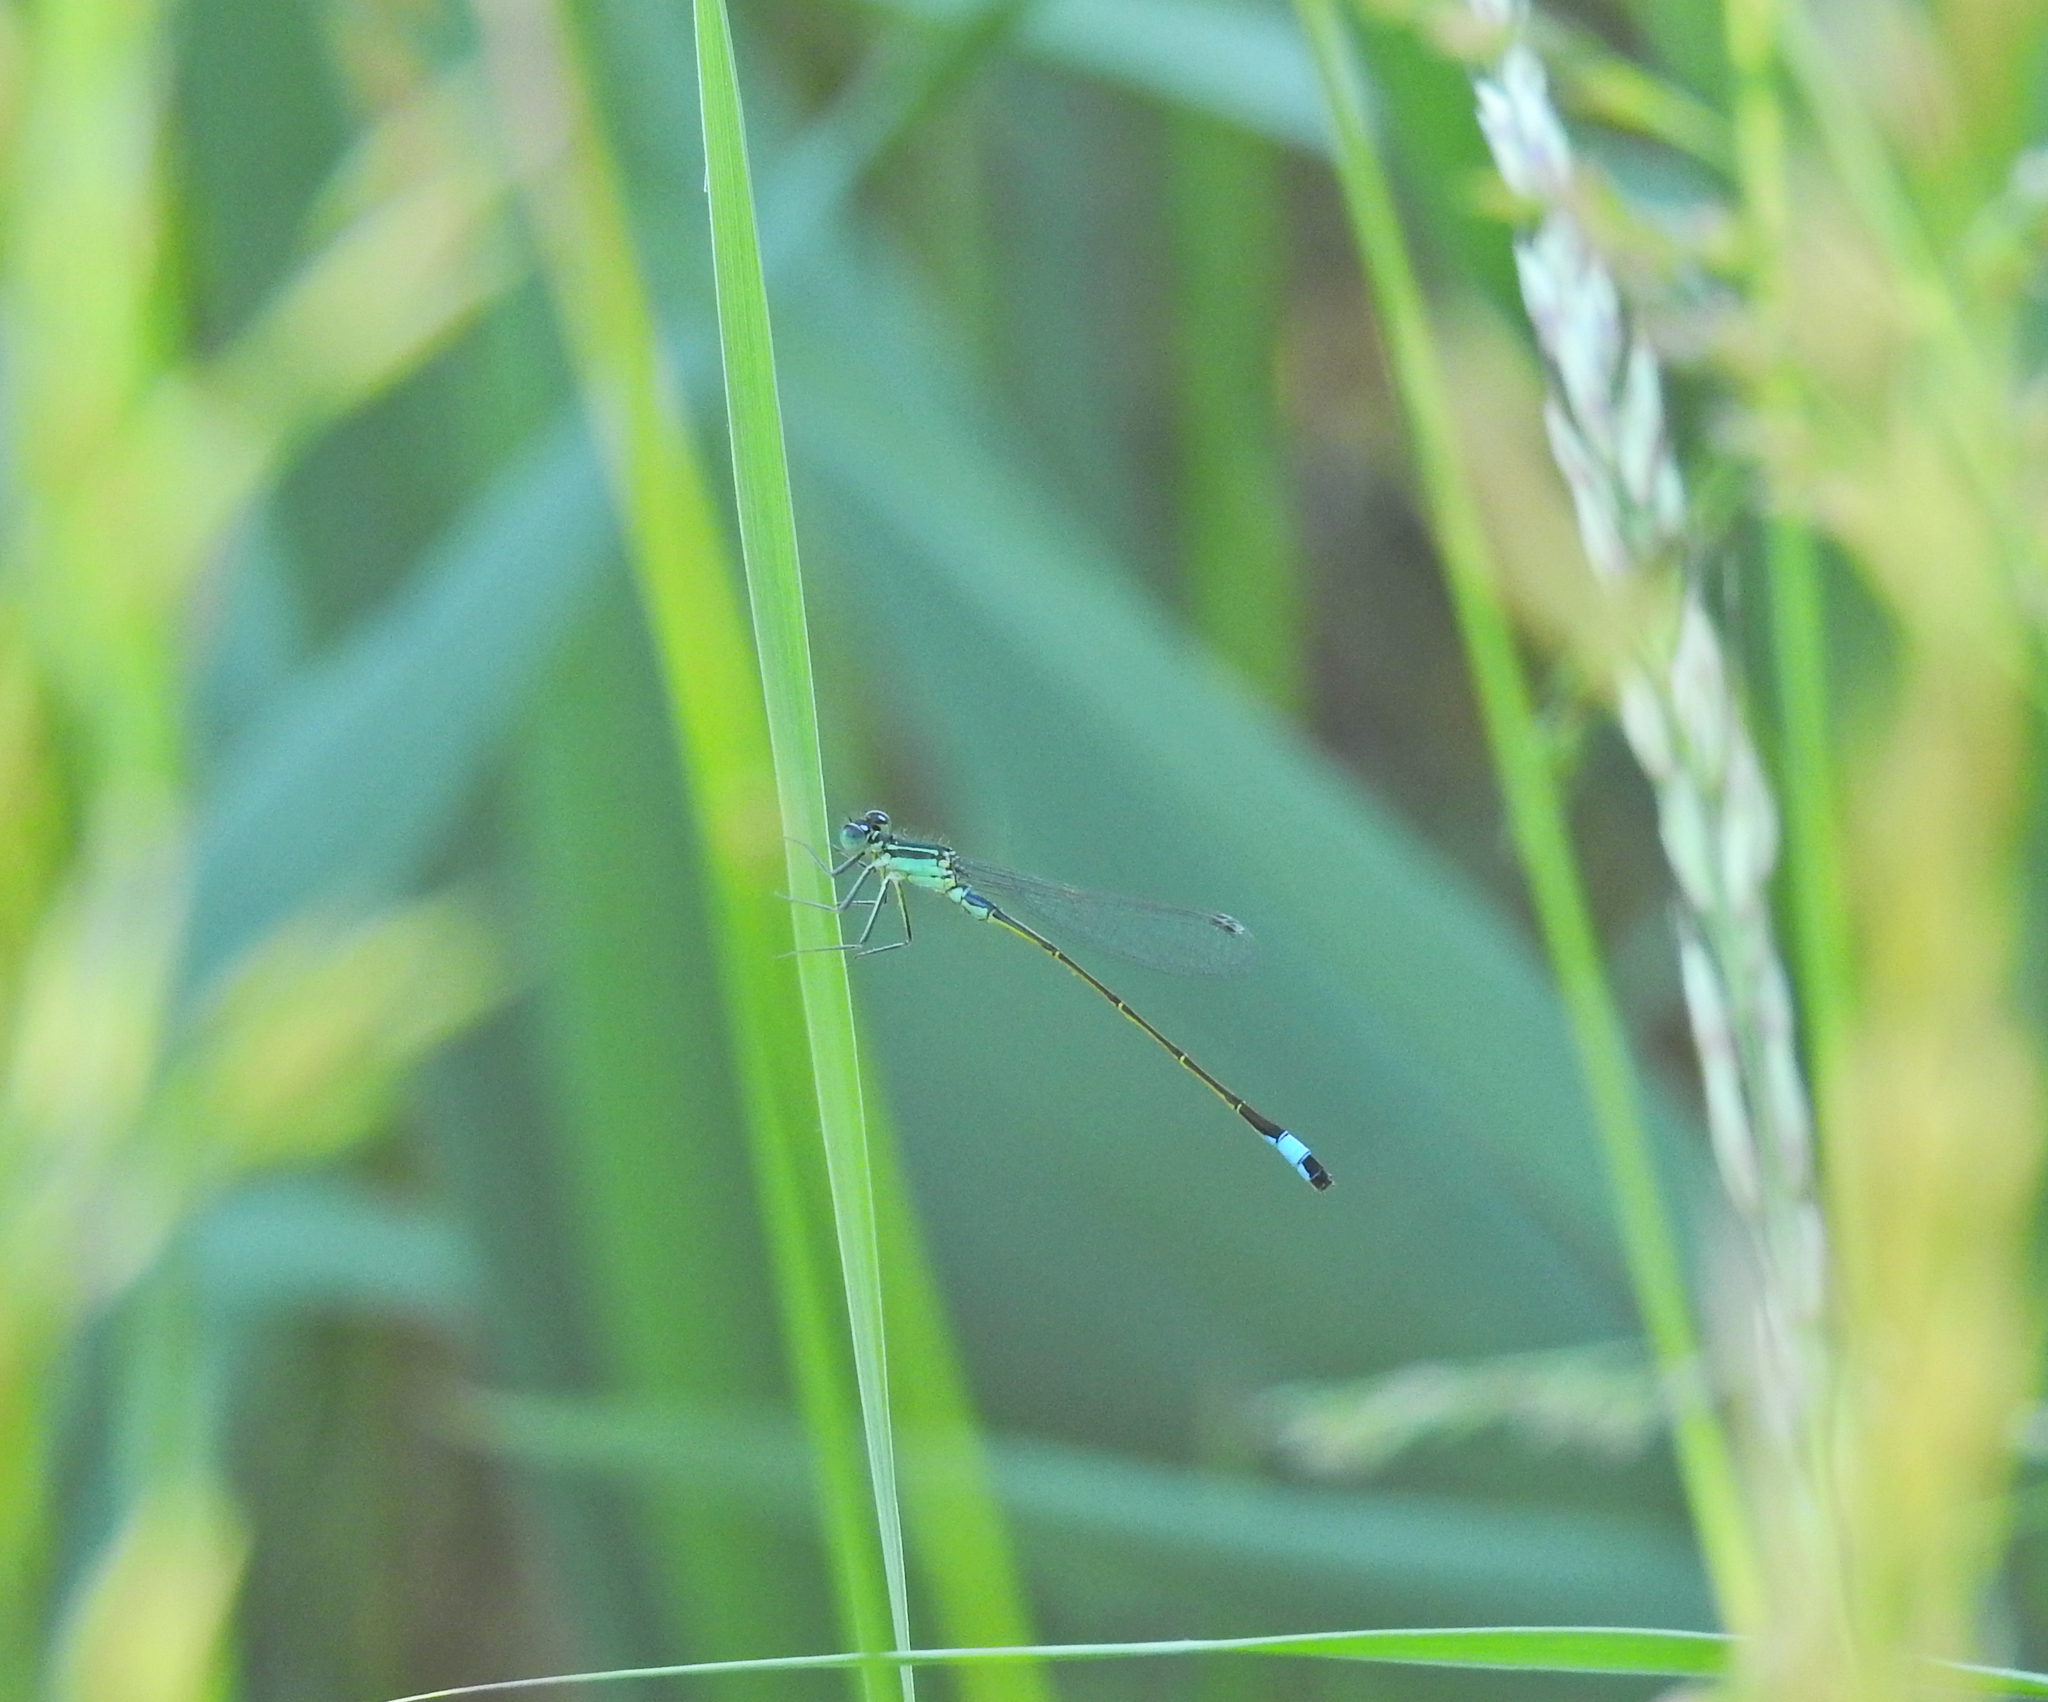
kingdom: Animalia
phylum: Arthropoda
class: Insecta
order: Odonata
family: Coenagrionidae
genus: Ischnura
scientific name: Ischnura elegans
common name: Blue-tailed damselfly
